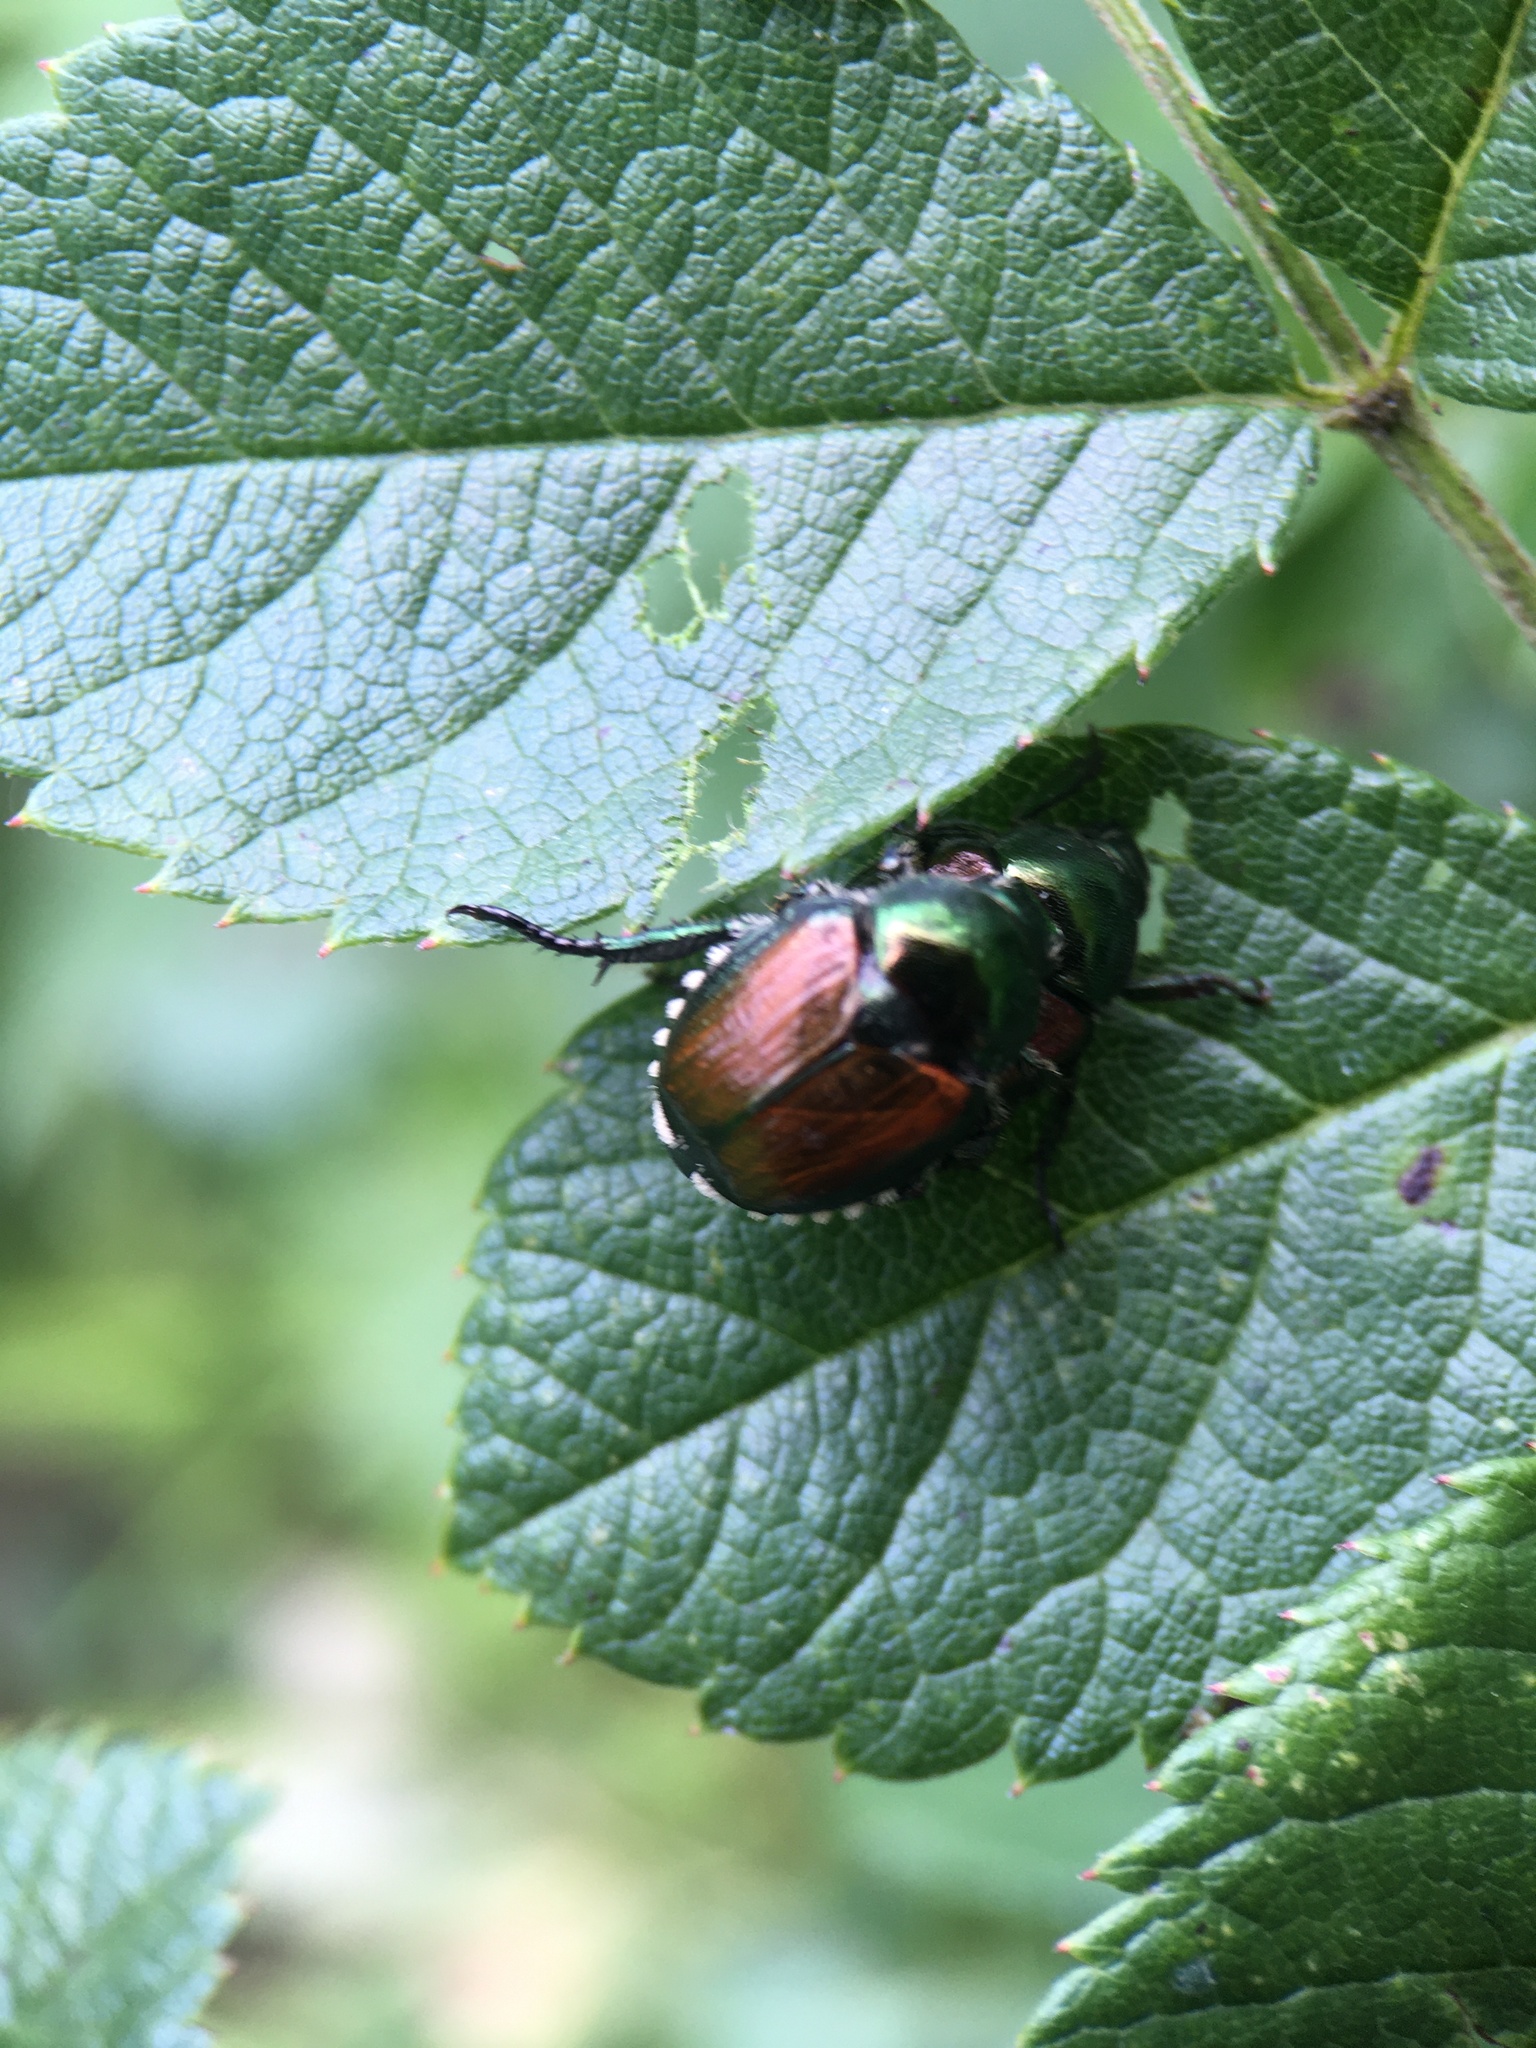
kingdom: Animalia
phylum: Arthropoda
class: Insecta
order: Coleoptera
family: Scarabaeidae
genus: Popillia
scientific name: Popillia japonica
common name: Japanese beetle
